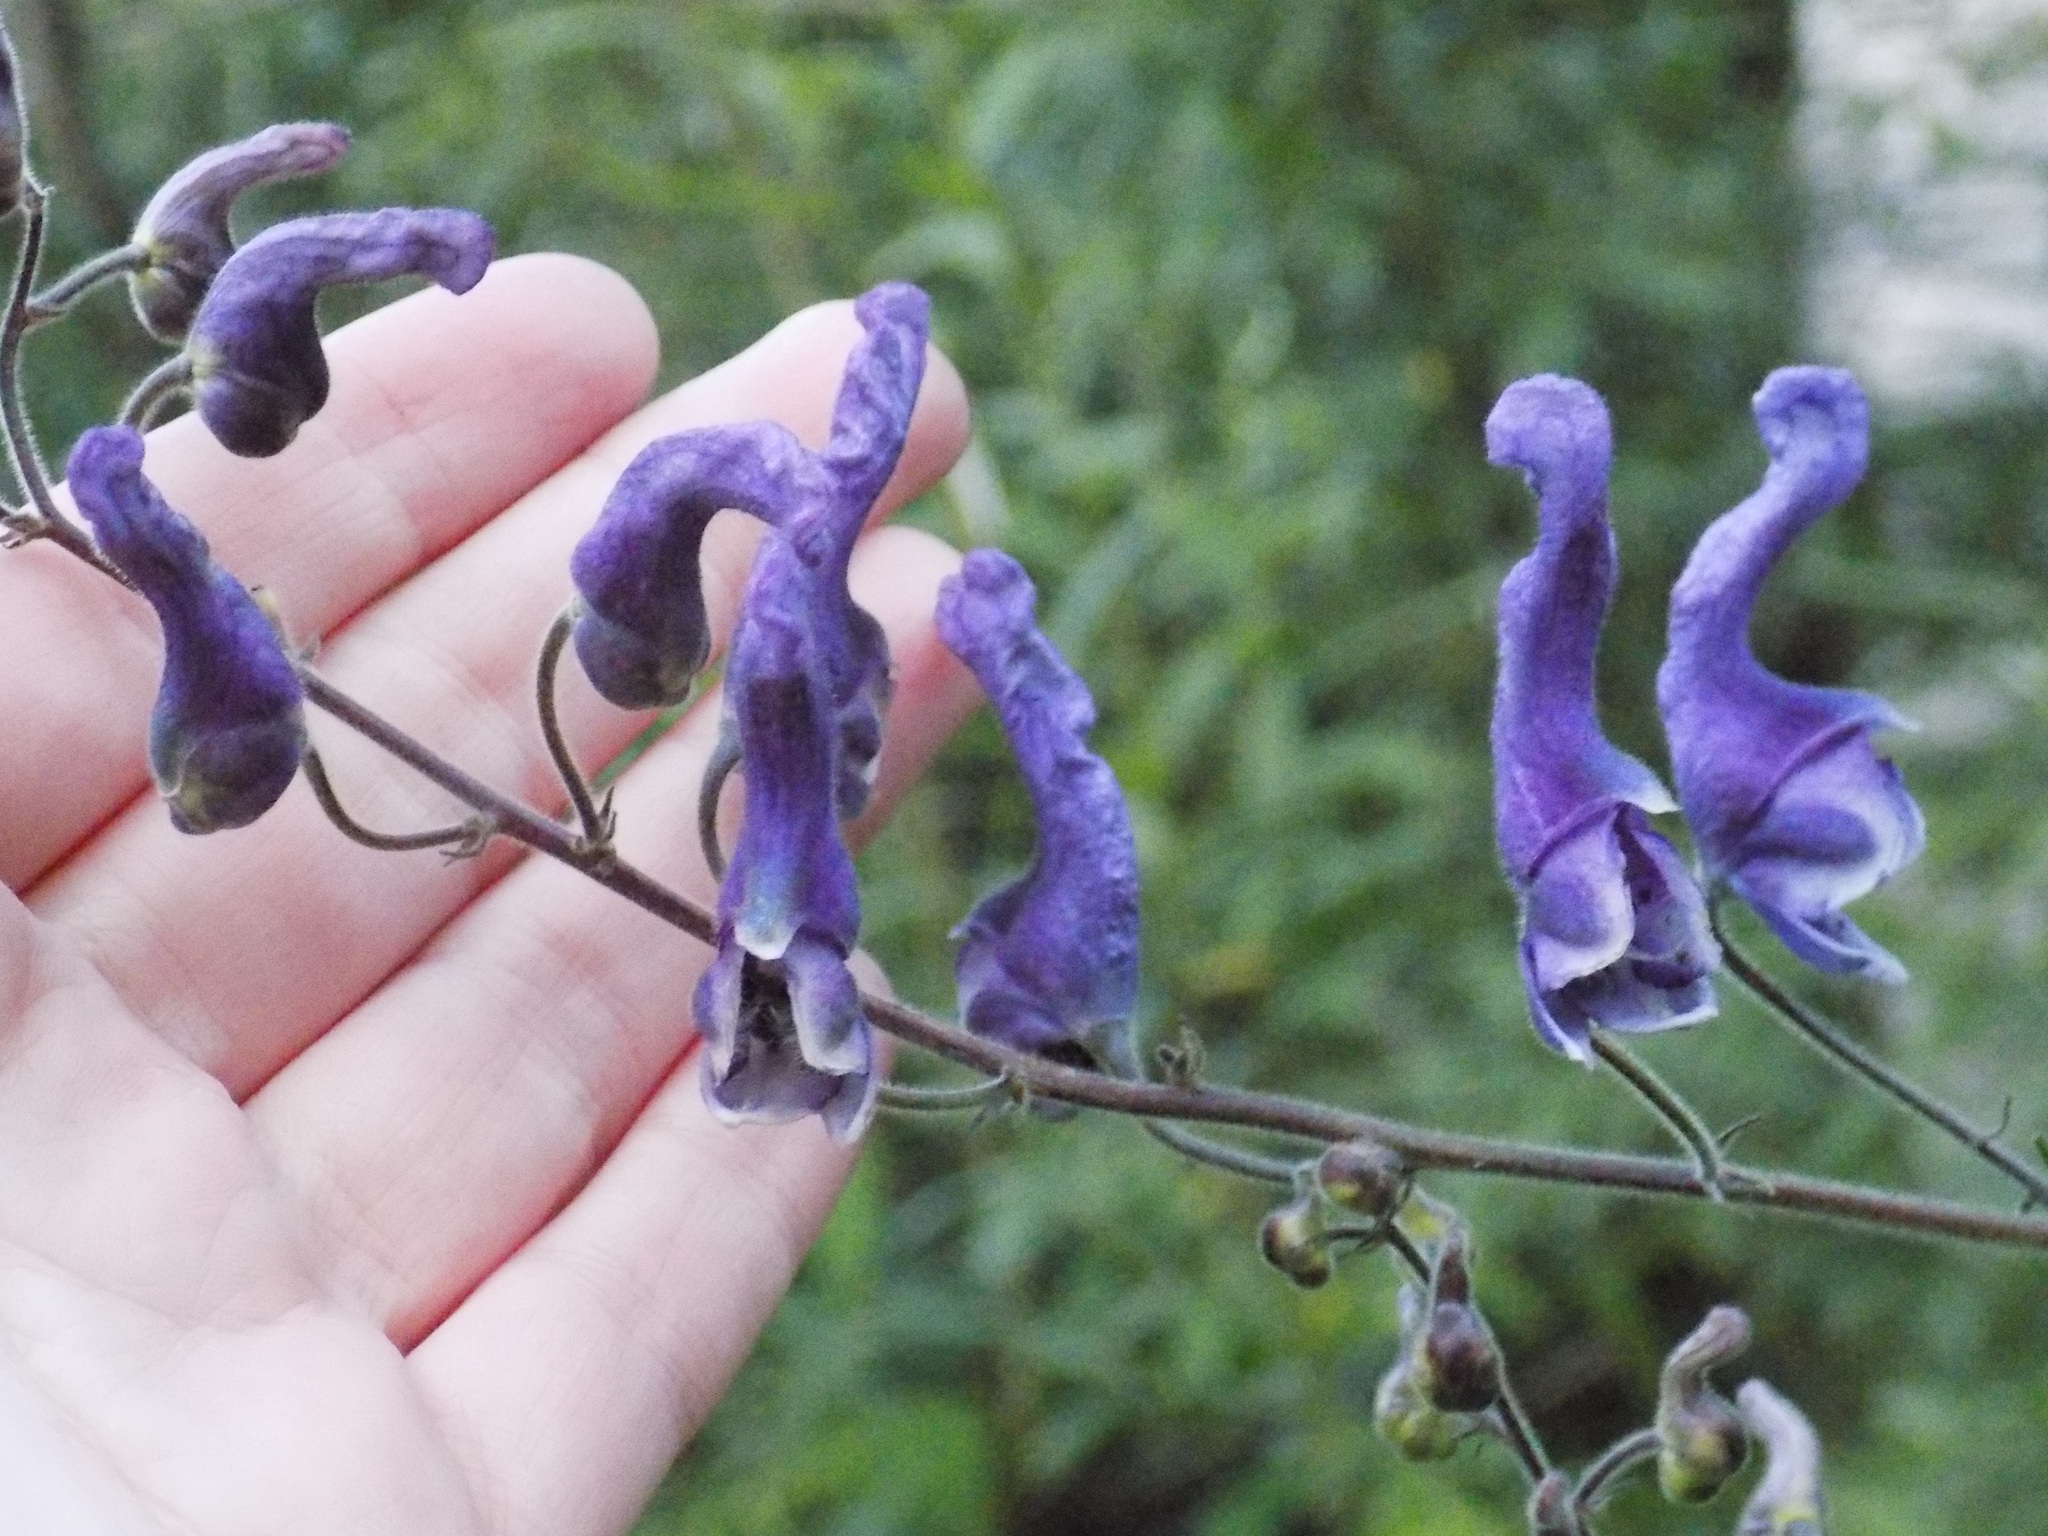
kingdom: Plantae
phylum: Tracheophyta
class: Magnoliopsida
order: Ranunculales
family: Ranunculaceae
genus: Aconitum
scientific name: Aconitum septentrionale
